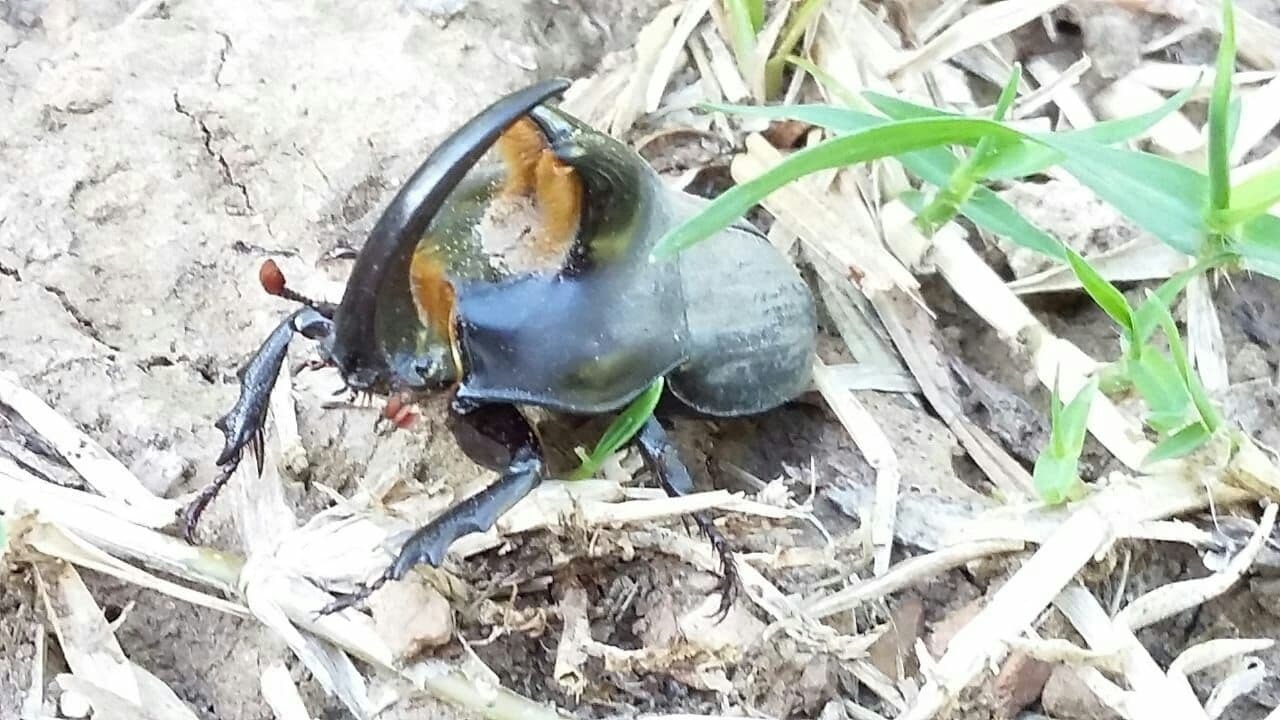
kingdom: Animalia
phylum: Arthropoda
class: Insecta
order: Coleoptera
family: Scarabaeidae
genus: Diloboderus
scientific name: Diloboderus abderus
